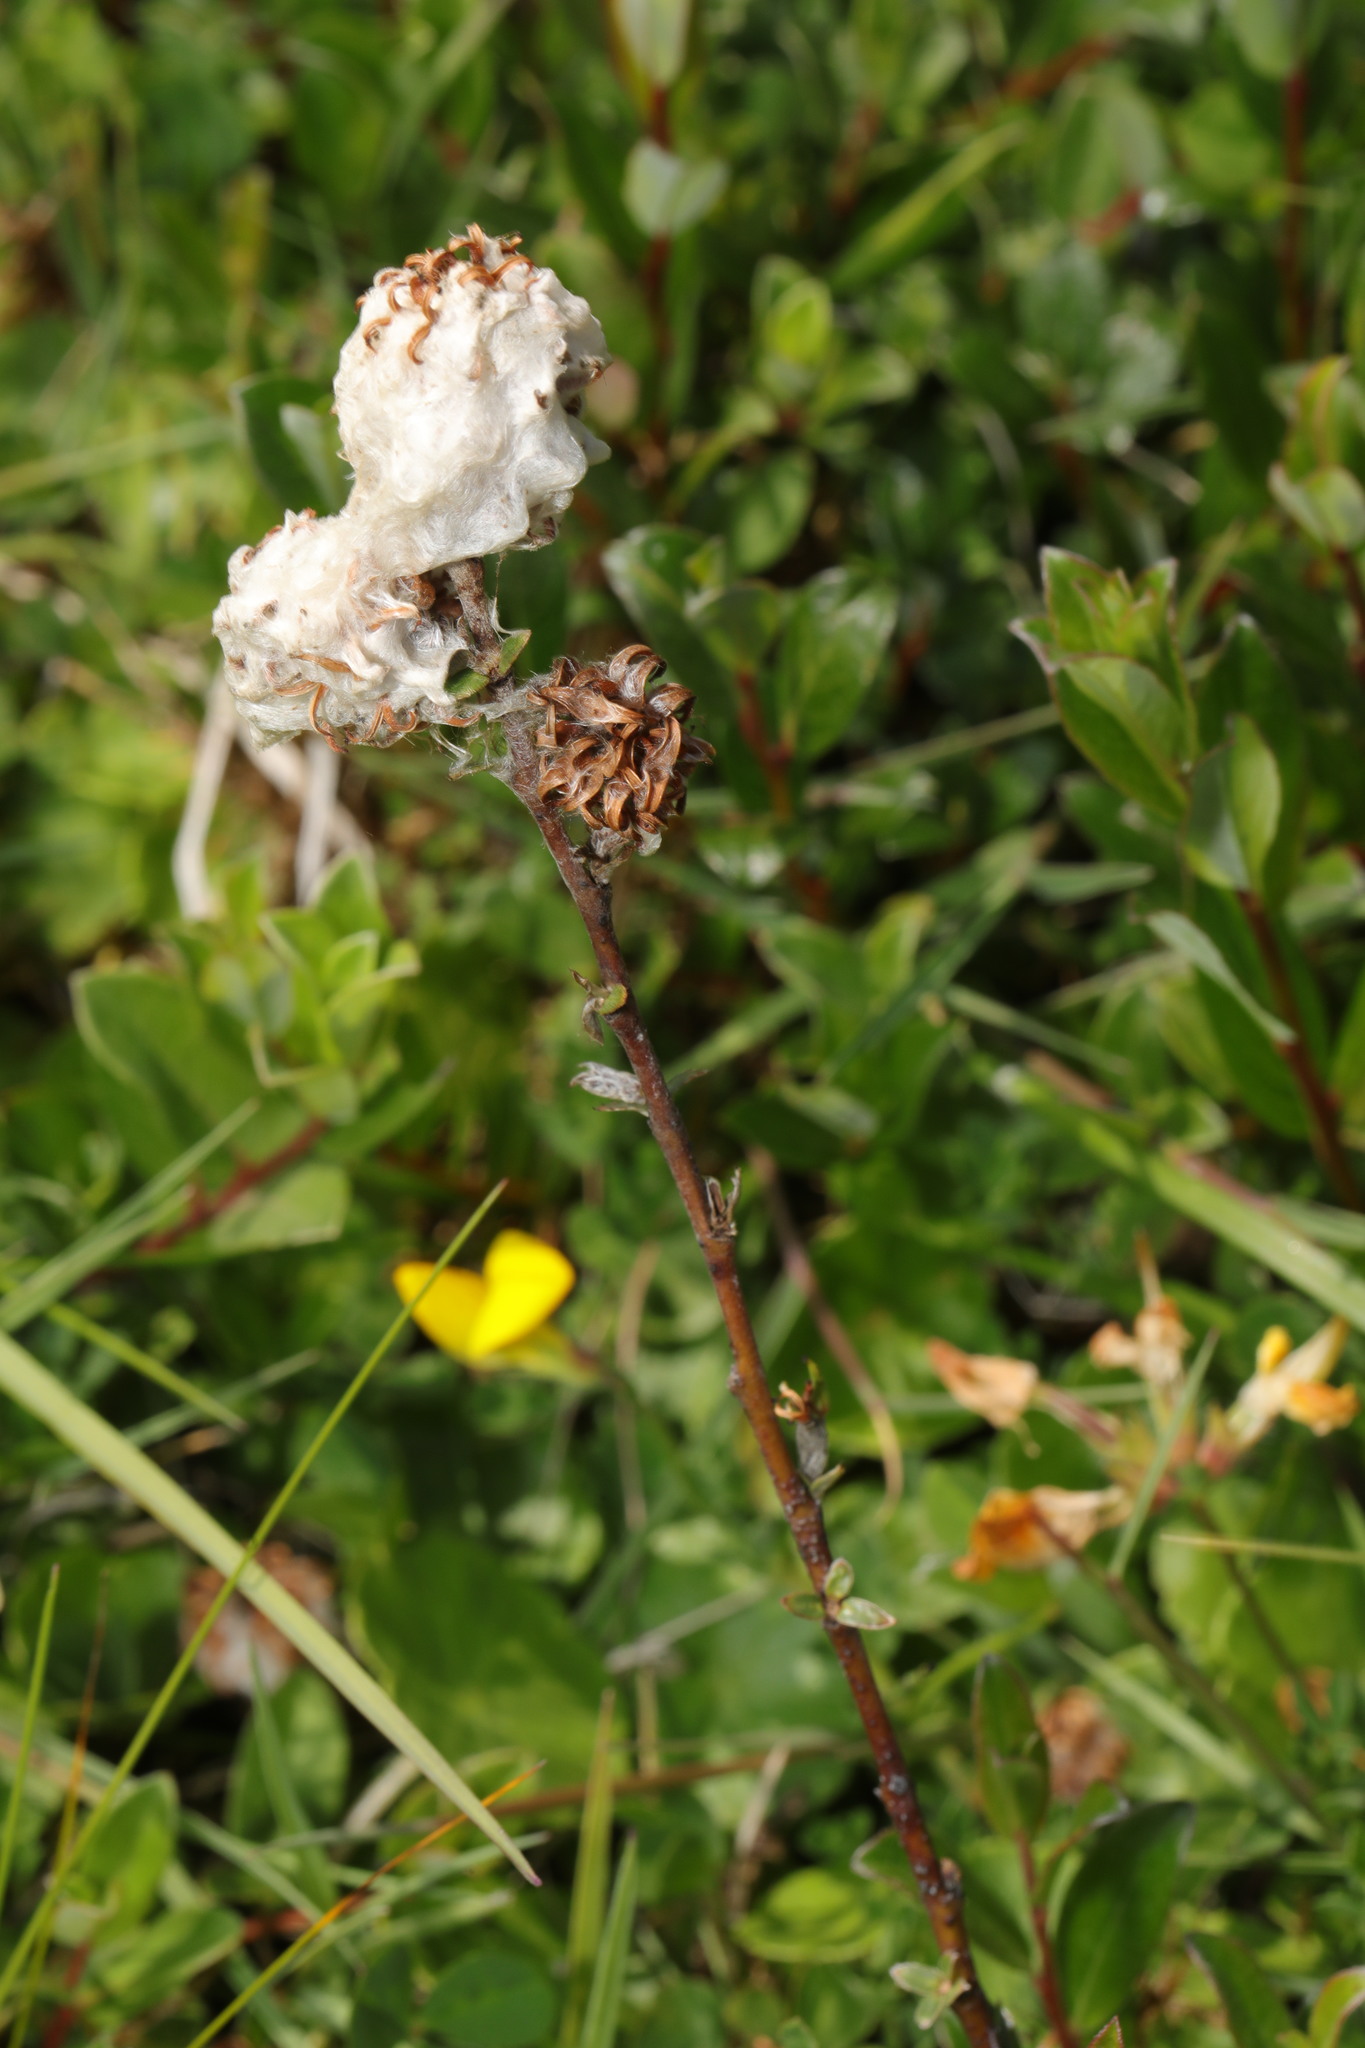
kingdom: Plantae
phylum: Tracheophyta
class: Magnoliopsida
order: Malpighiales
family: Salicaceae
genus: Salix
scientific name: Salix repens
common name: Creeping willow
